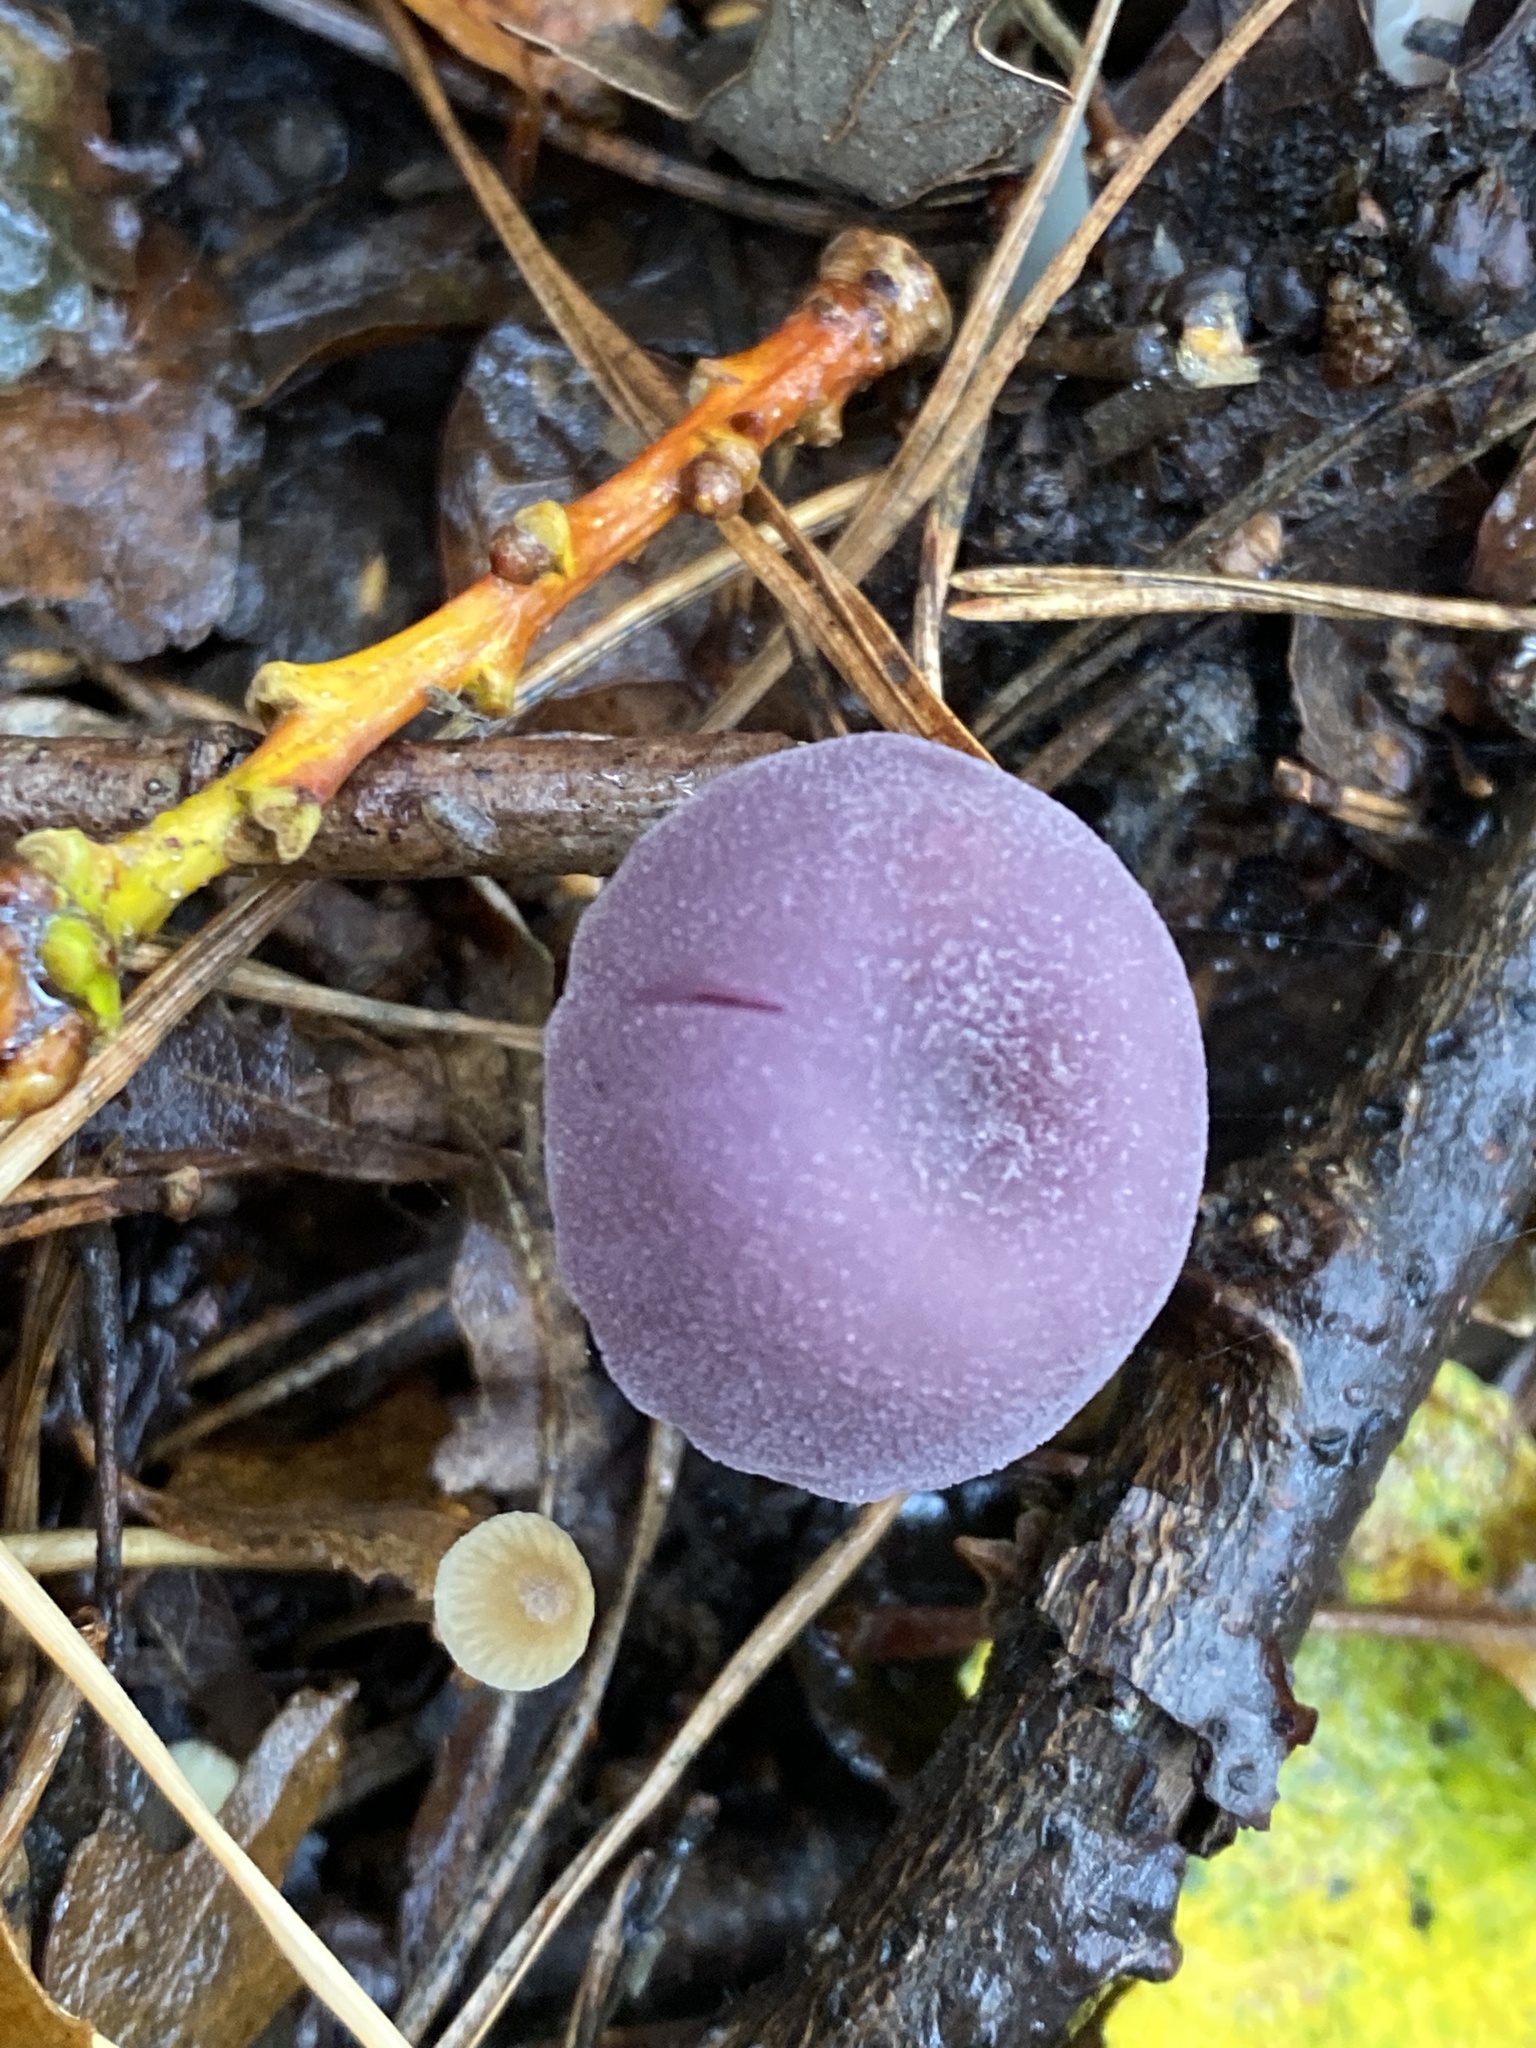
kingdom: Fungi
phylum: Basidiomycota
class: Agaricomycetes
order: Agaricales
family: Hydnangiaceae
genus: Laccaria
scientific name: Laccaria amethystina
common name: Amethyst deceiver
